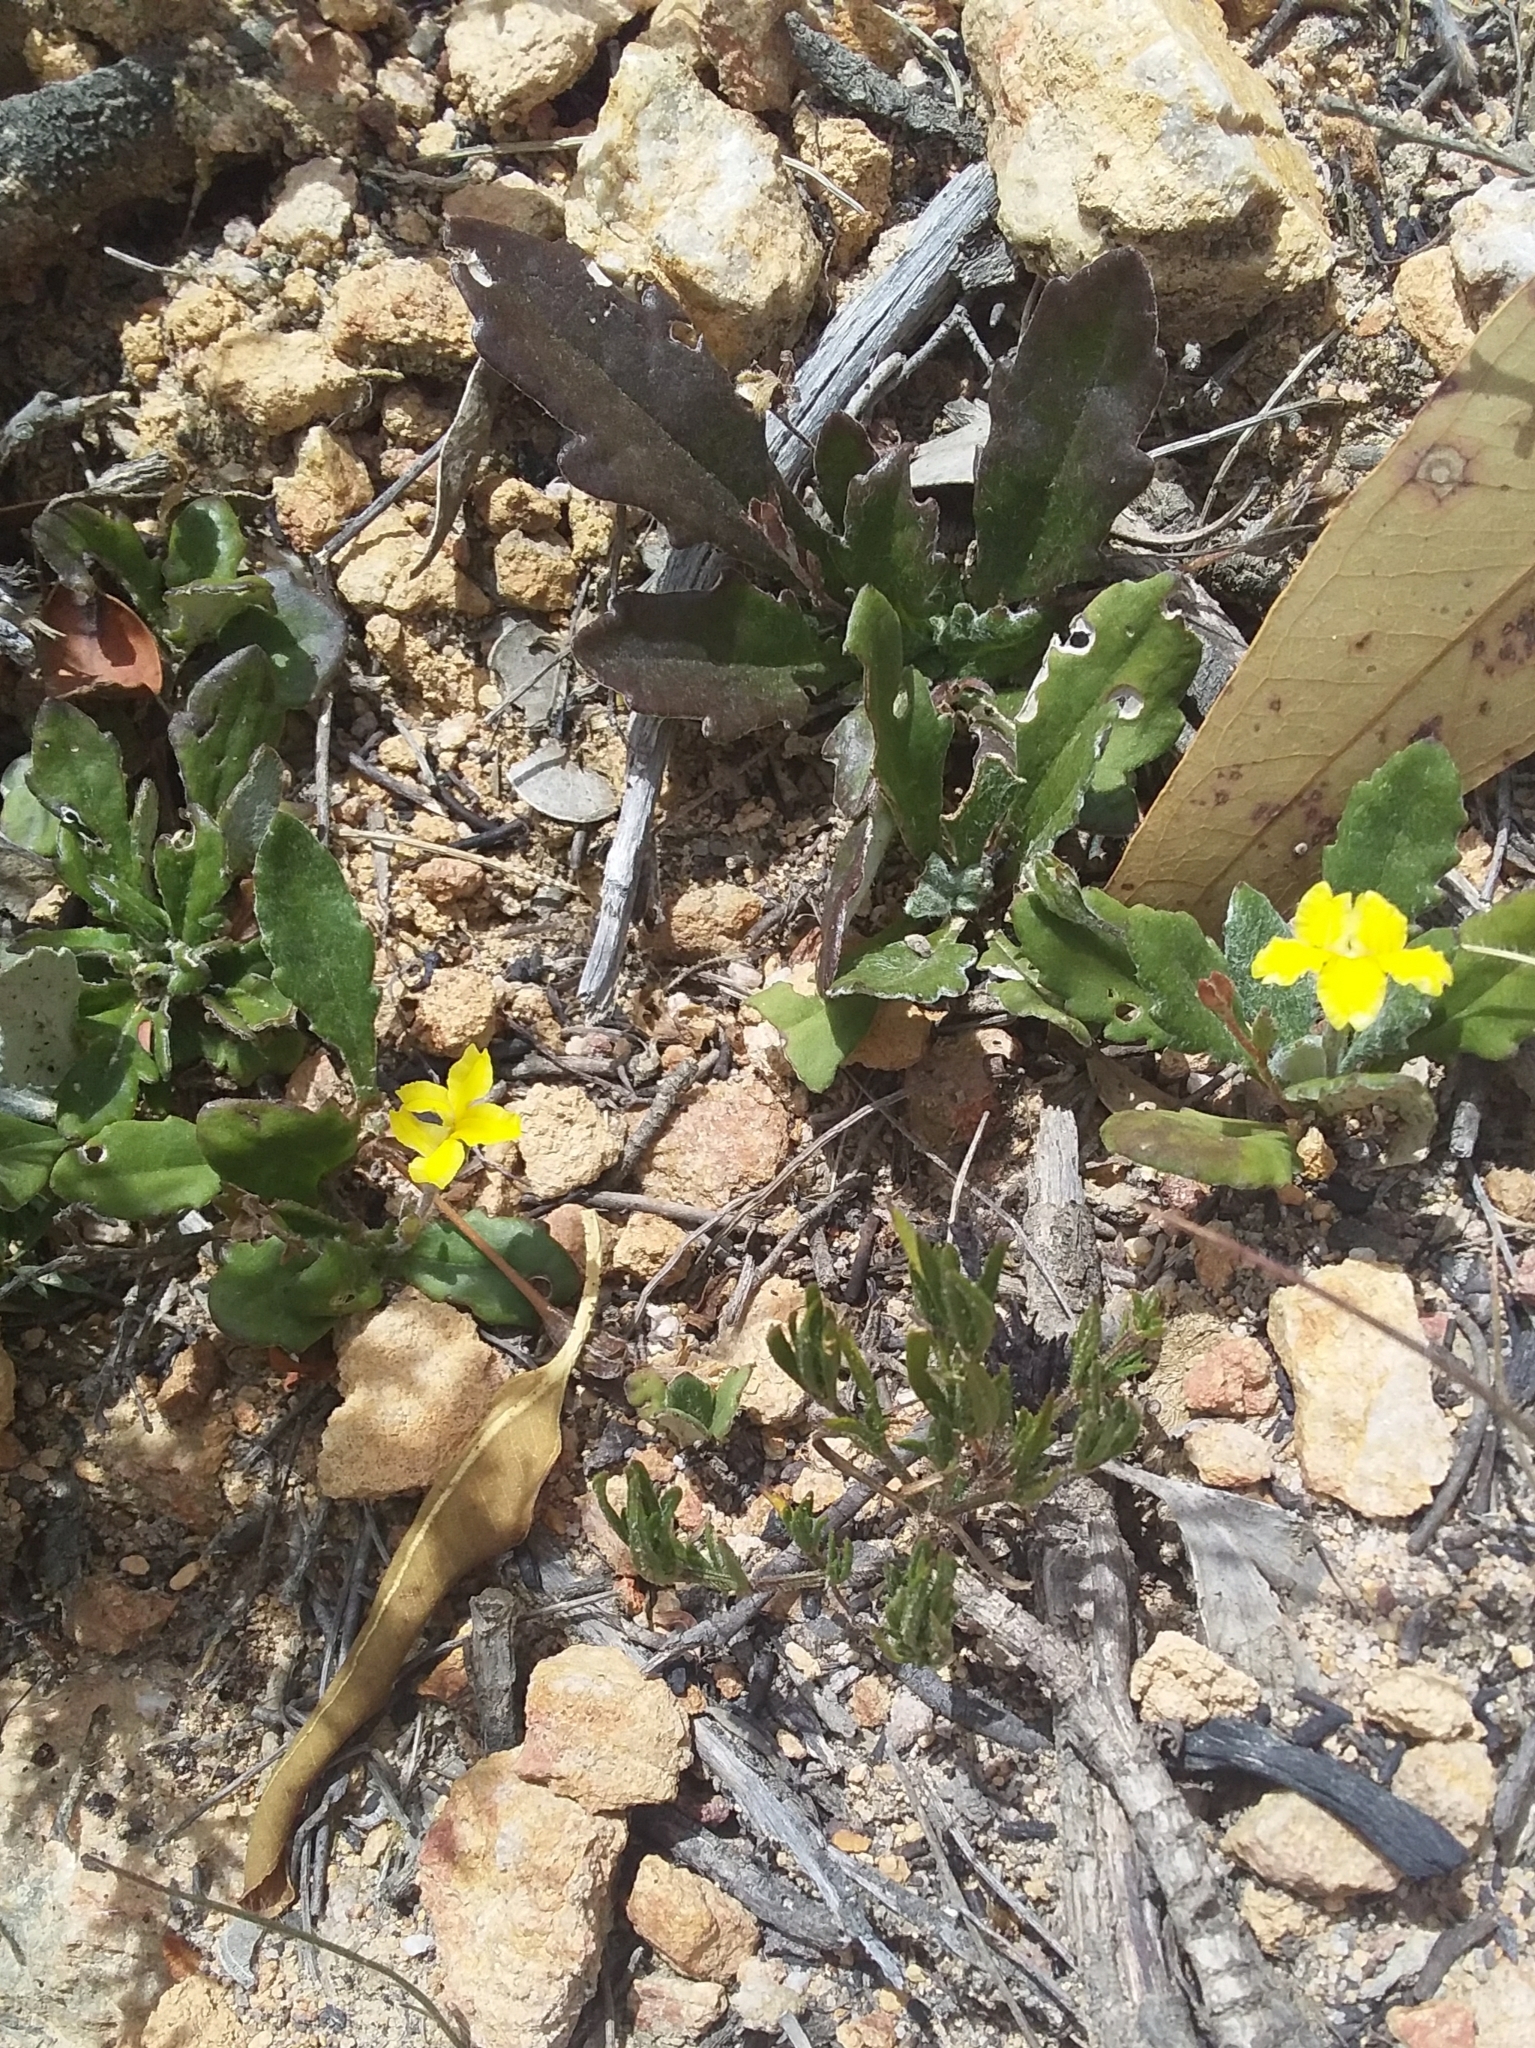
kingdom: Plantae
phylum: Tracheophyta
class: Magnoliopsida
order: Asterales
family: Goodeniaceae
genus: Goodenia
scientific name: Goodenia blackiana
